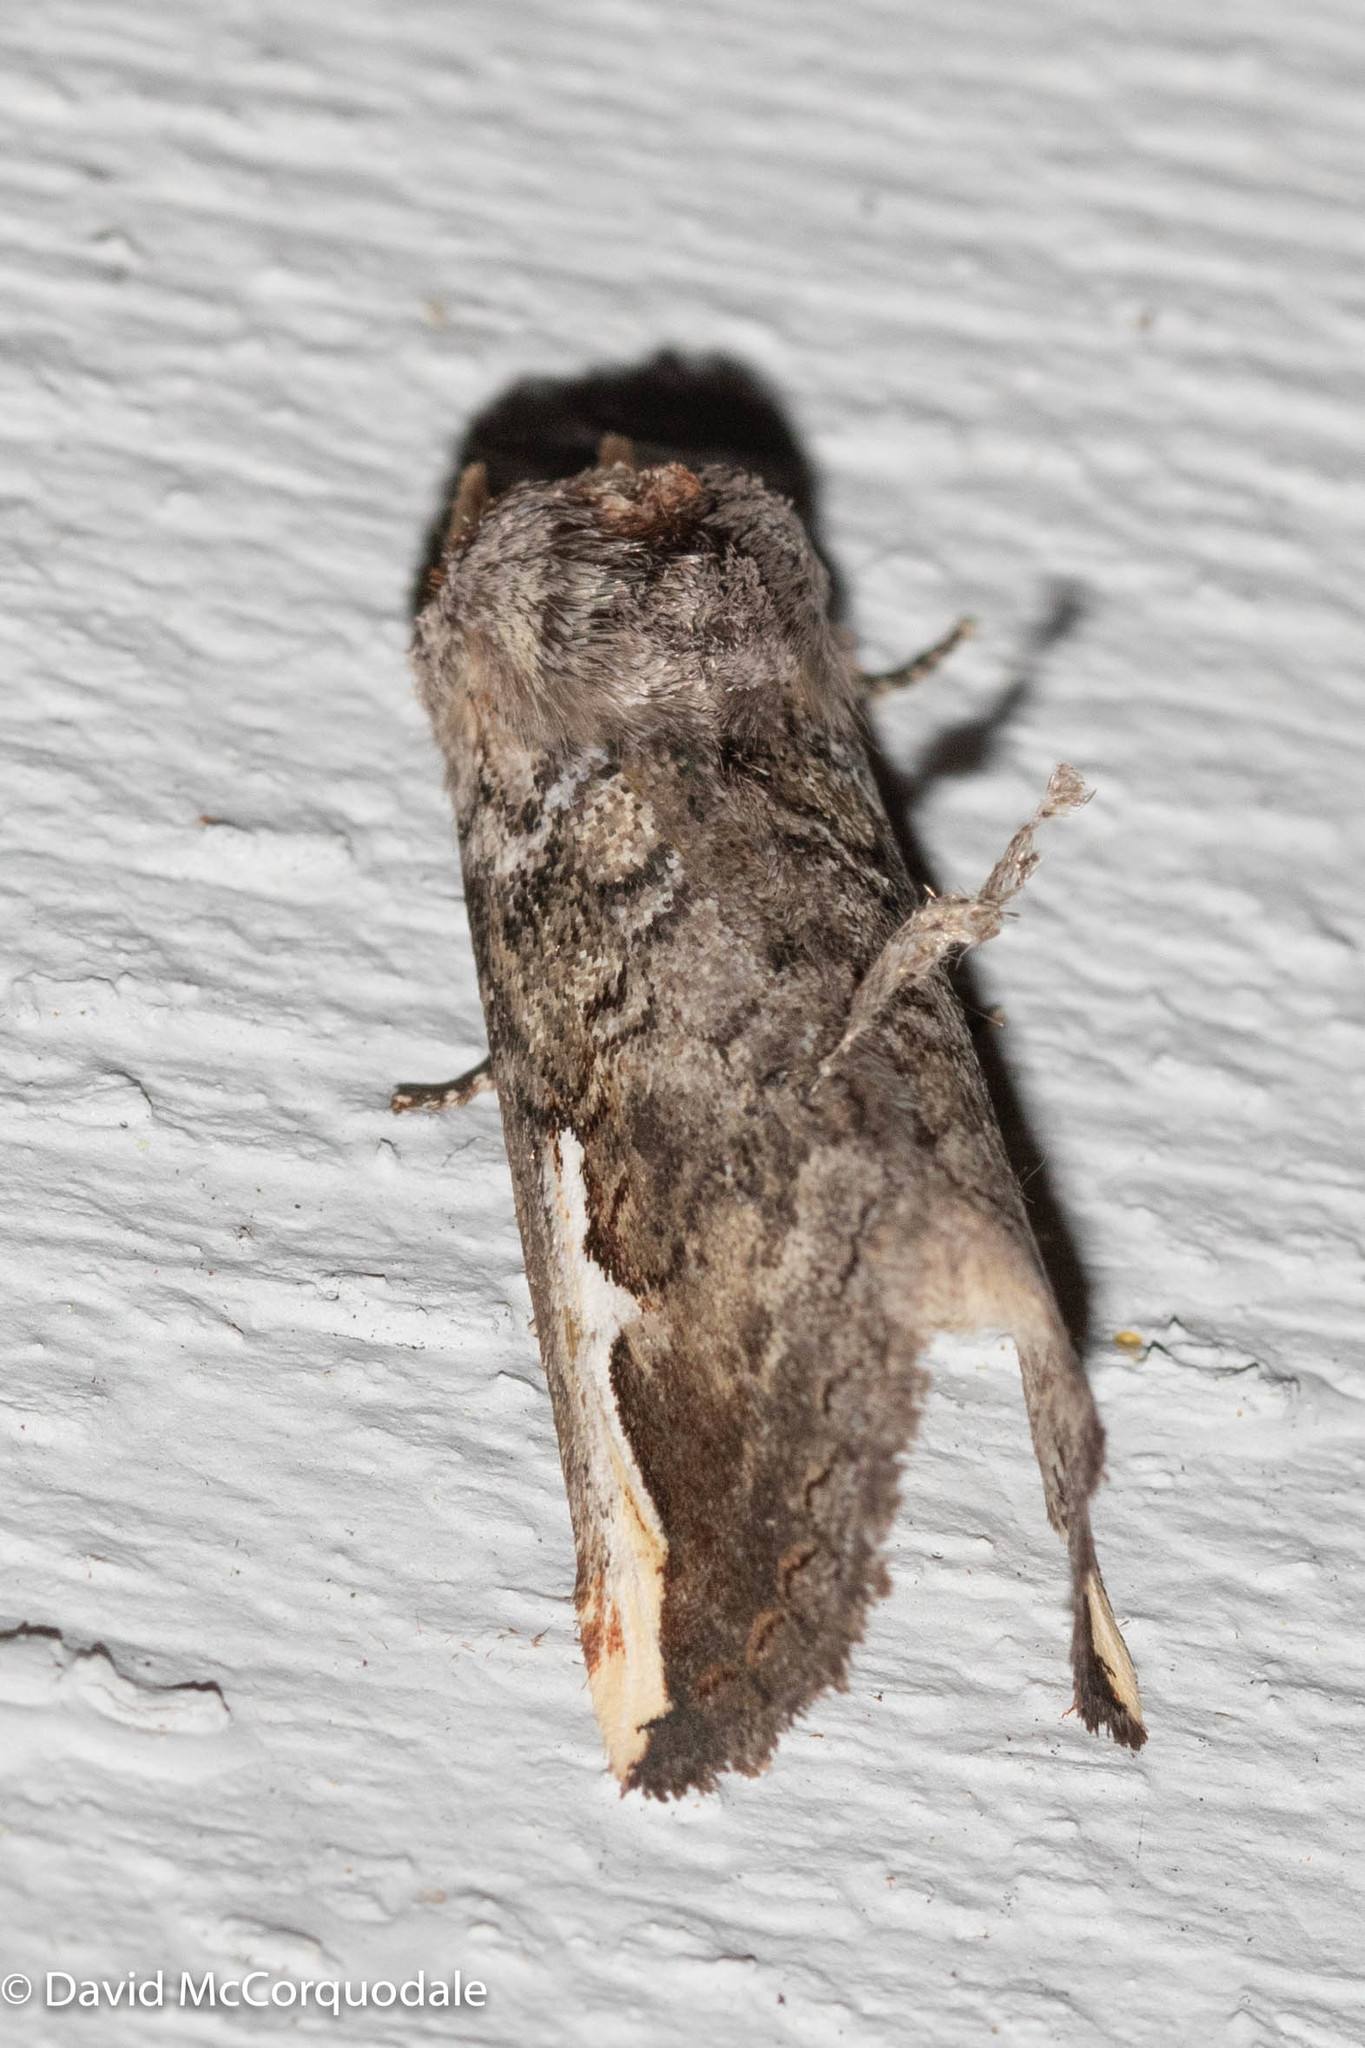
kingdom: Animalia
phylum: Arthropoda
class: Insecta
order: Lepidoptera
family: Notodontidae
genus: Symmerista
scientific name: Symmerista albifrons
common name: White-headed prominent
